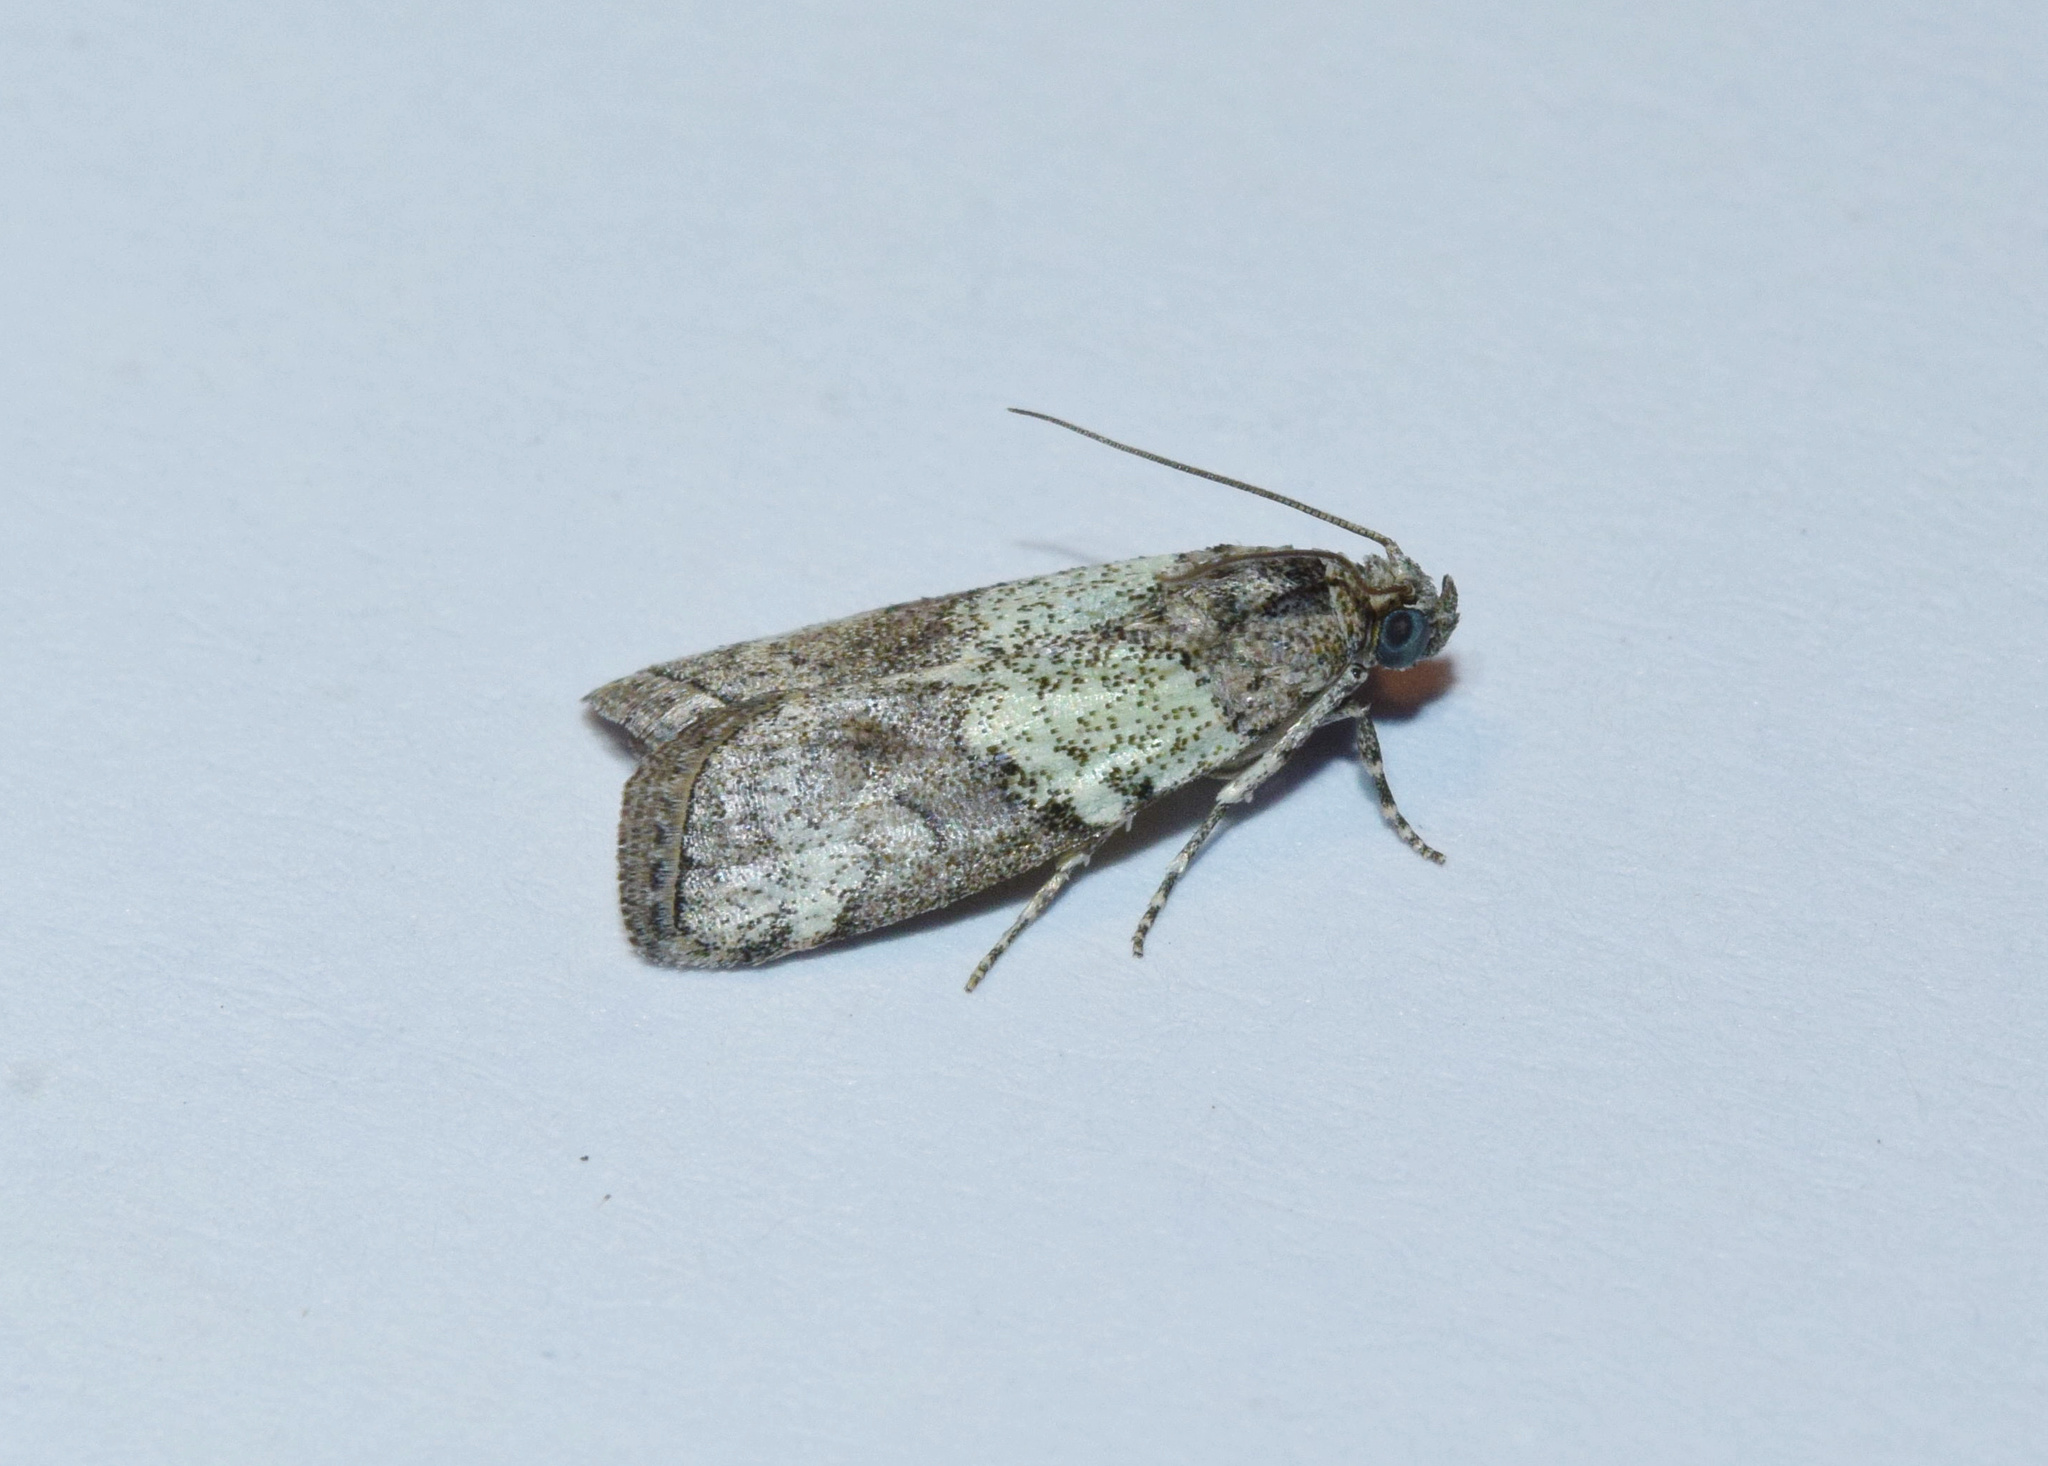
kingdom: Animalia
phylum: Arthropoda
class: Insecta
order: Lepidoptera
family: Pyralidae
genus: Acrobasis
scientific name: Acrobasis
